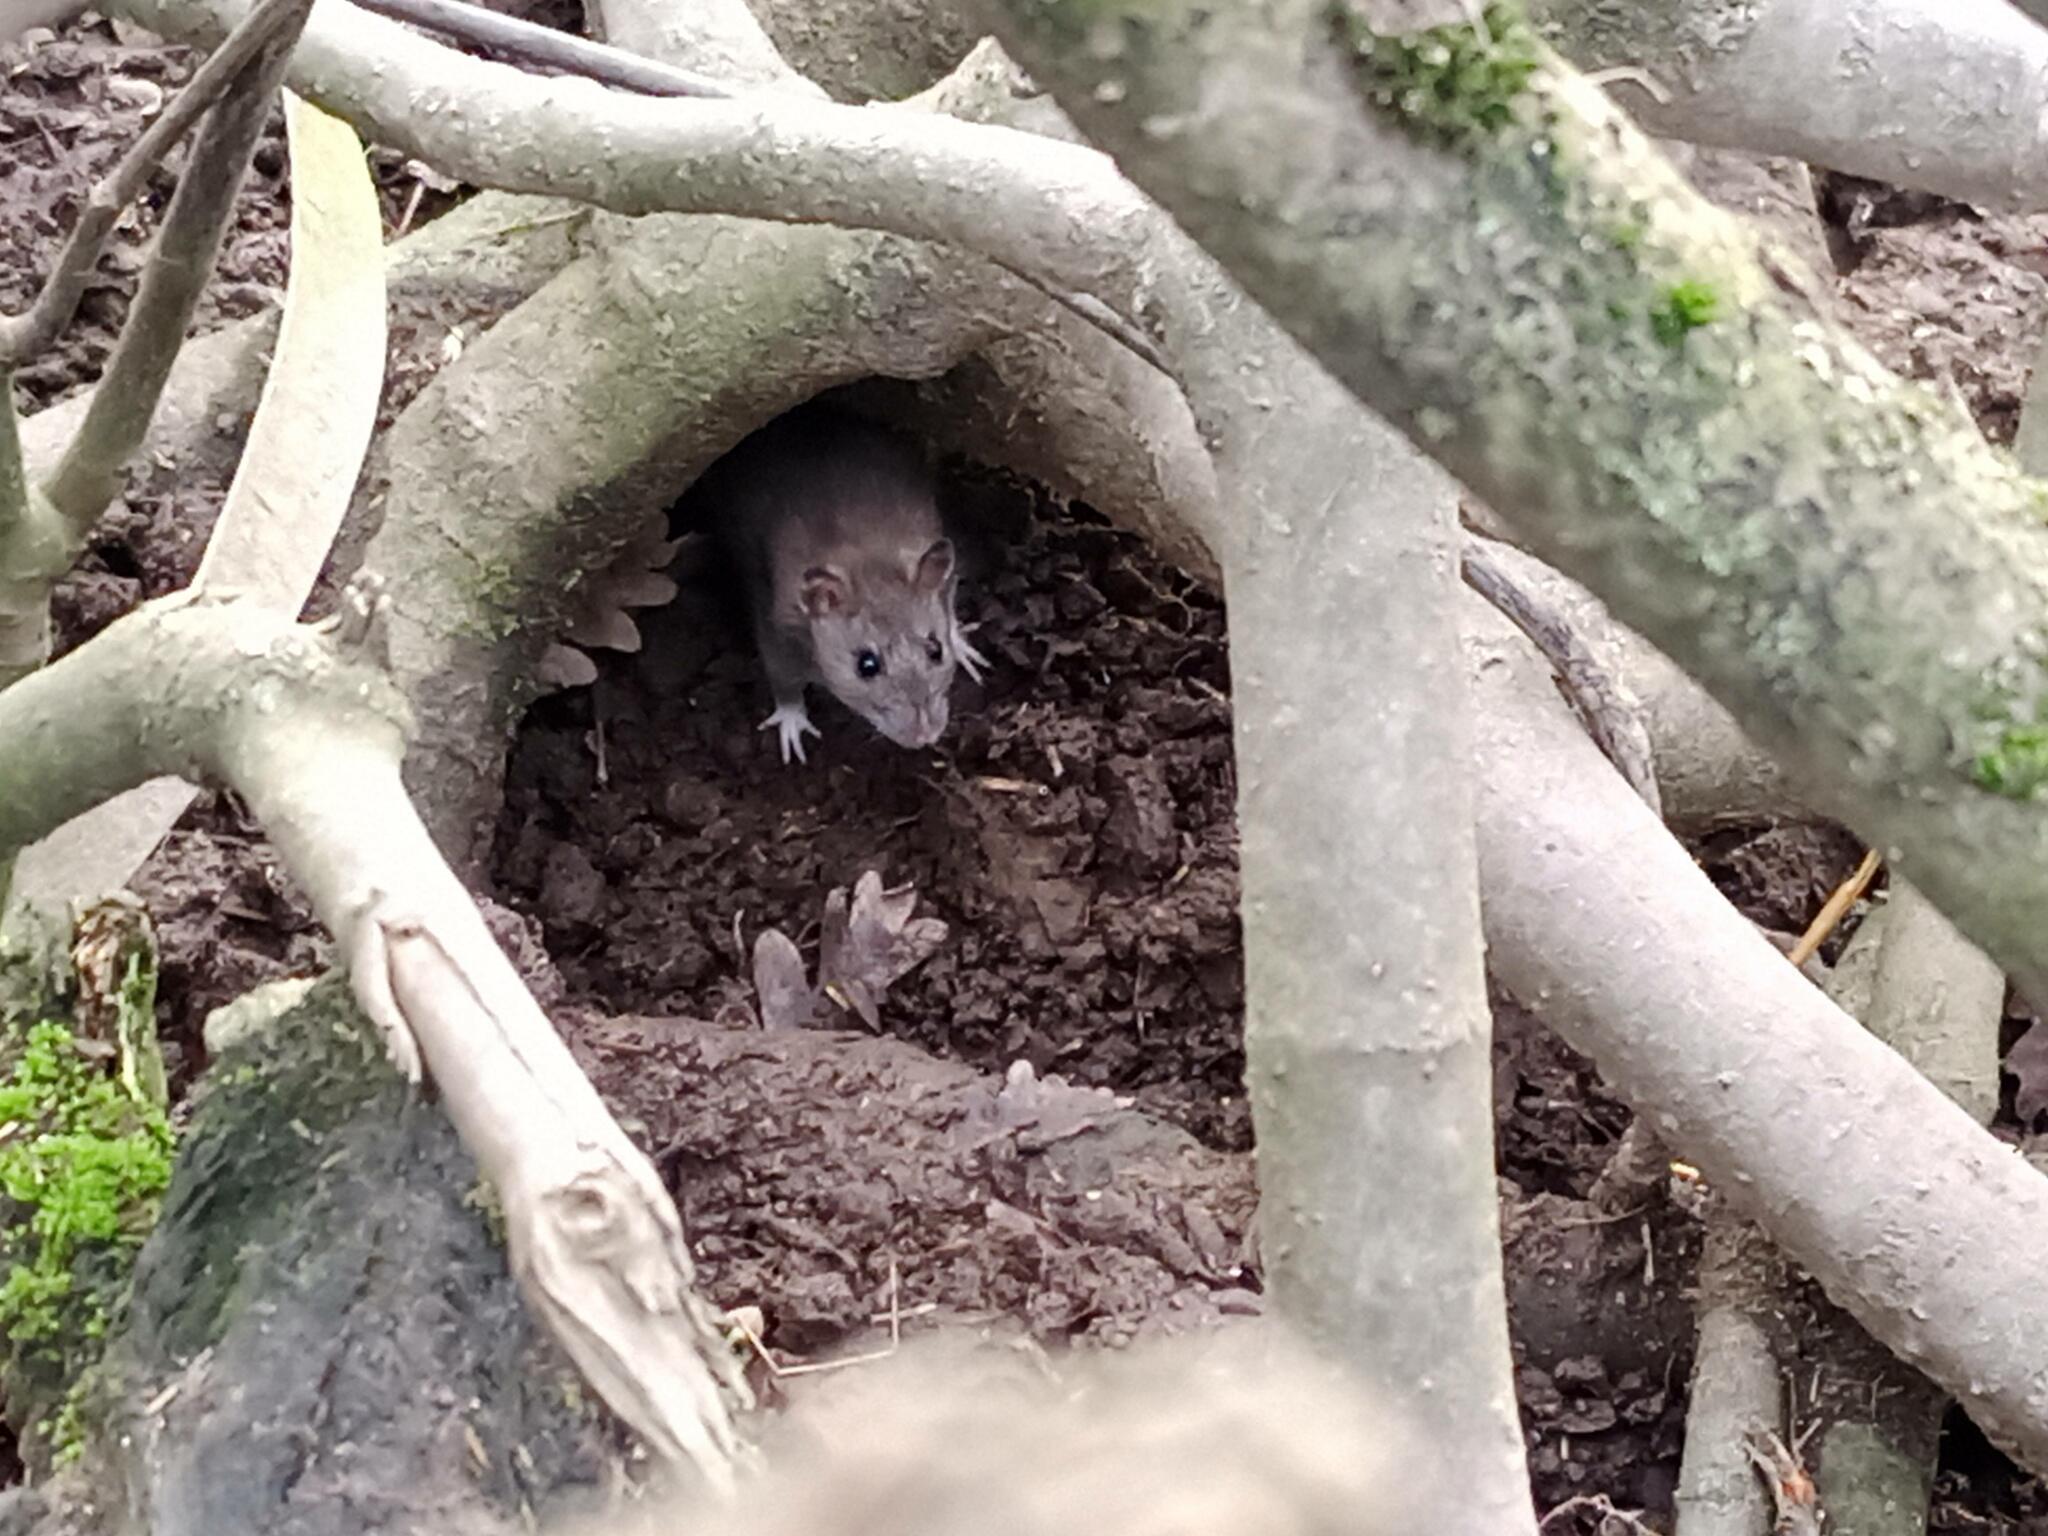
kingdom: Animalia
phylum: Chordata
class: Mammalia
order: Rodentia
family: Muridae
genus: Rattus
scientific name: Rattus norvegicus
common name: Brown rat
